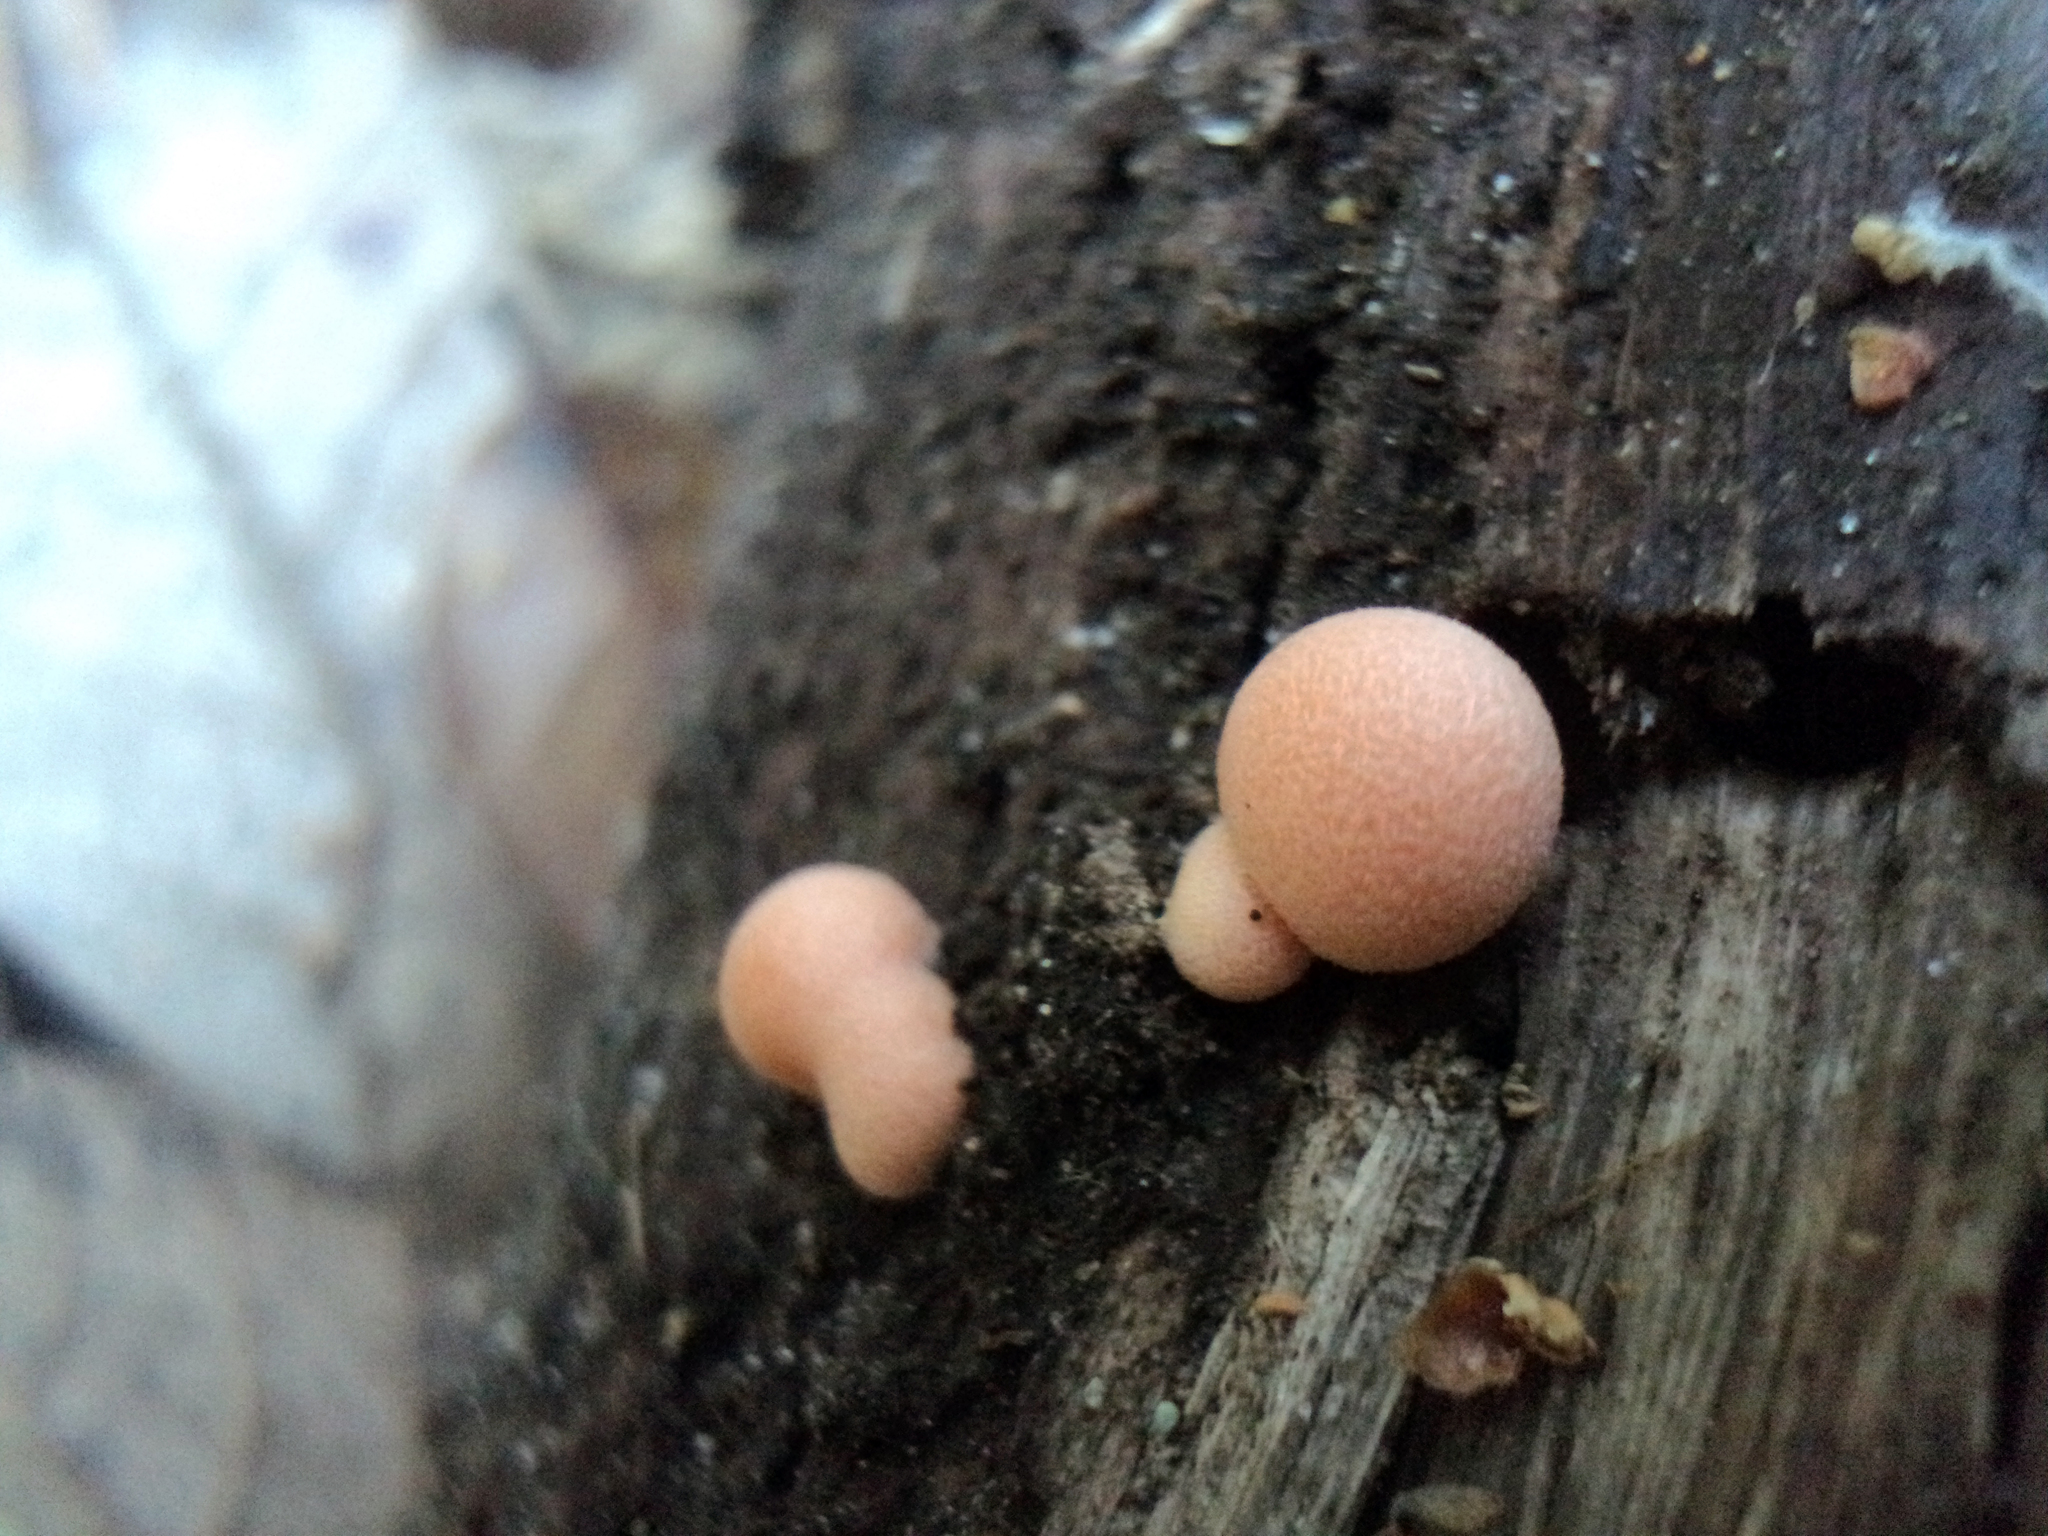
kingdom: Protozoa
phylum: Mycetozoa
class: Myxomycetes
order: Cribrariales
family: Tubiferaceae
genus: Lycogala
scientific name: Lycogala epidendrum
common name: Wolf's milk
